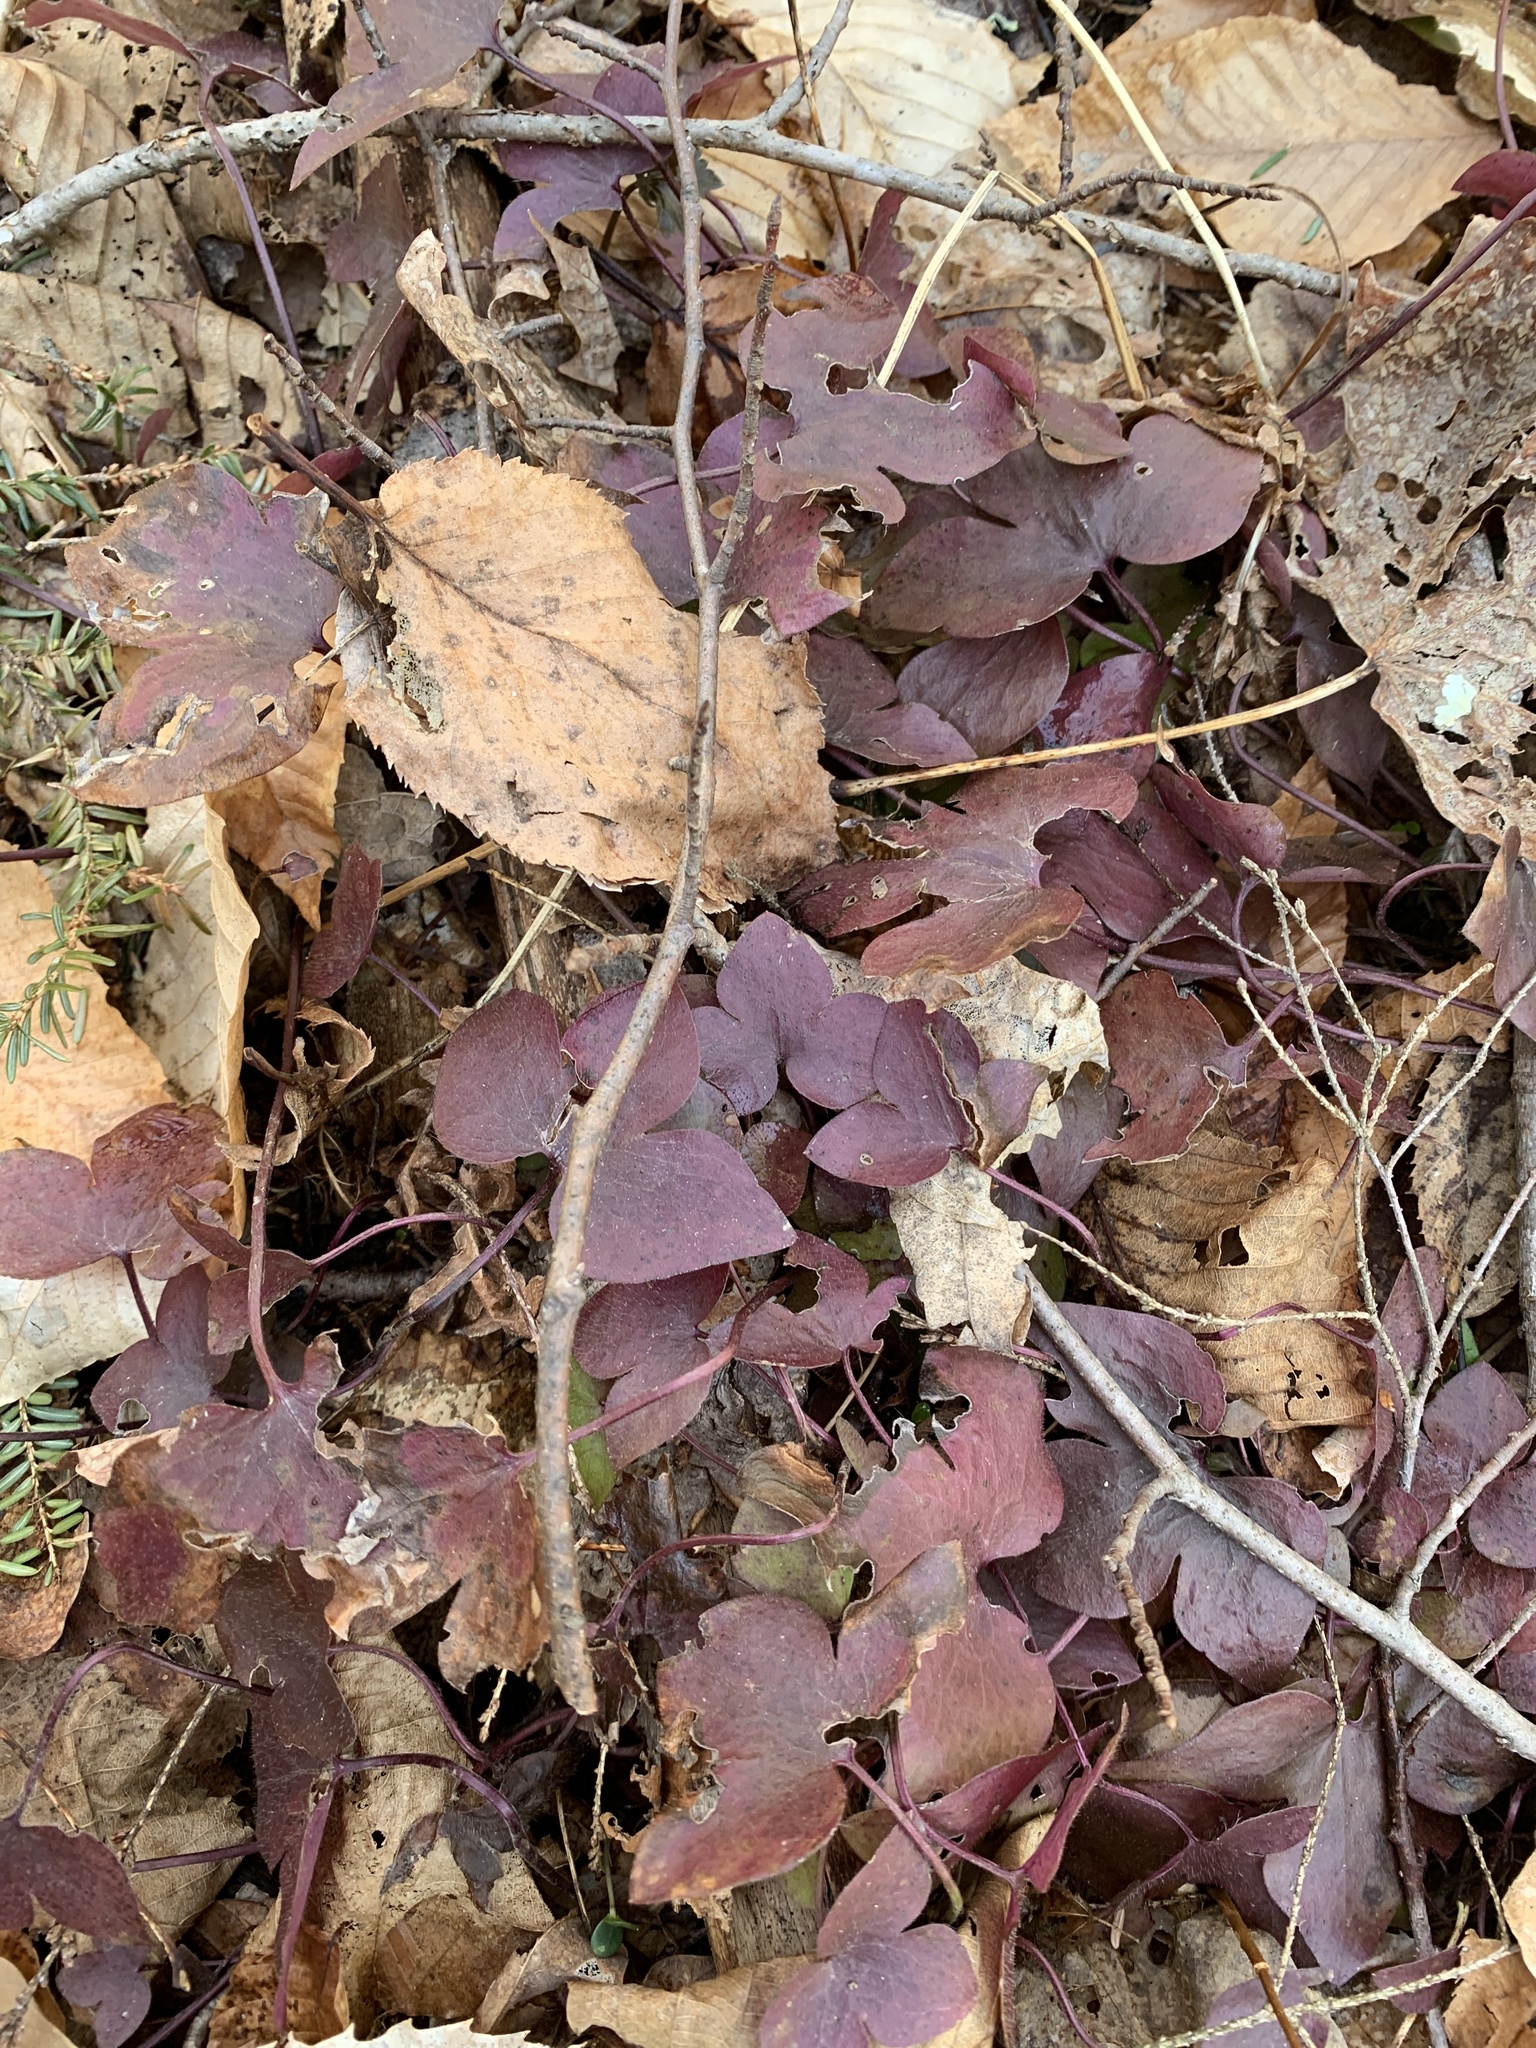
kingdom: Plantae
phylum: Tracheophyta
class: Magnoliopsida
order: Ranunculales
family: Ranunculaceae
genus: Hepatica
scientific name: Hepatica acutiloba
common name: Sharp-lobed hepatica
